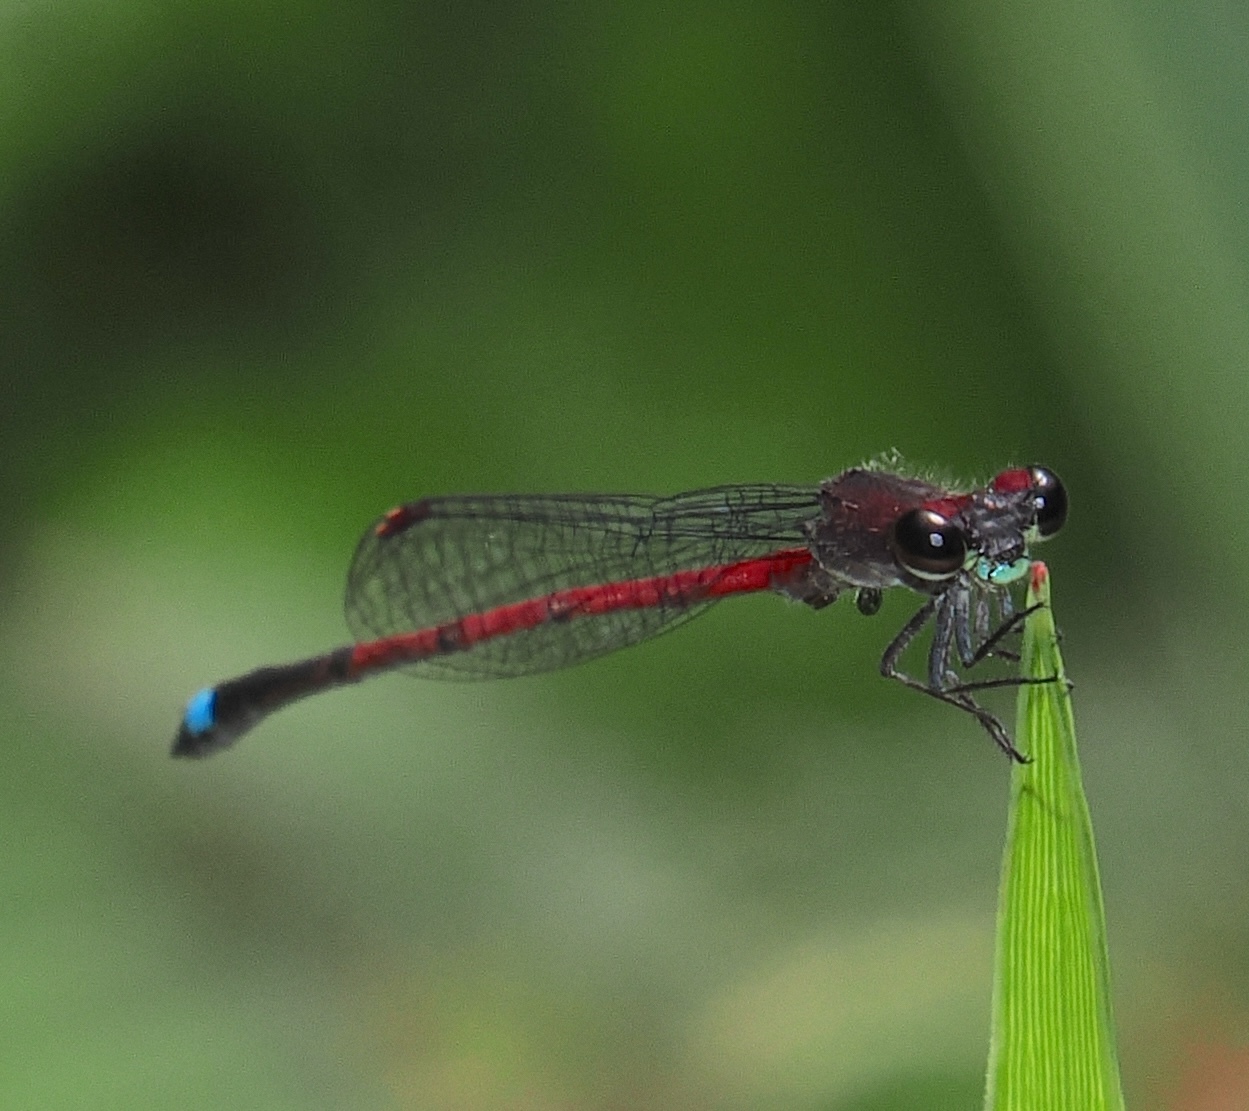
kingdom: Animalia
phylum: Arthropoda
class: Insecta
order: Odonata
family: Coenagrionidae
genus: Oxyagrion
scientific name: Oxyagrion terminale
